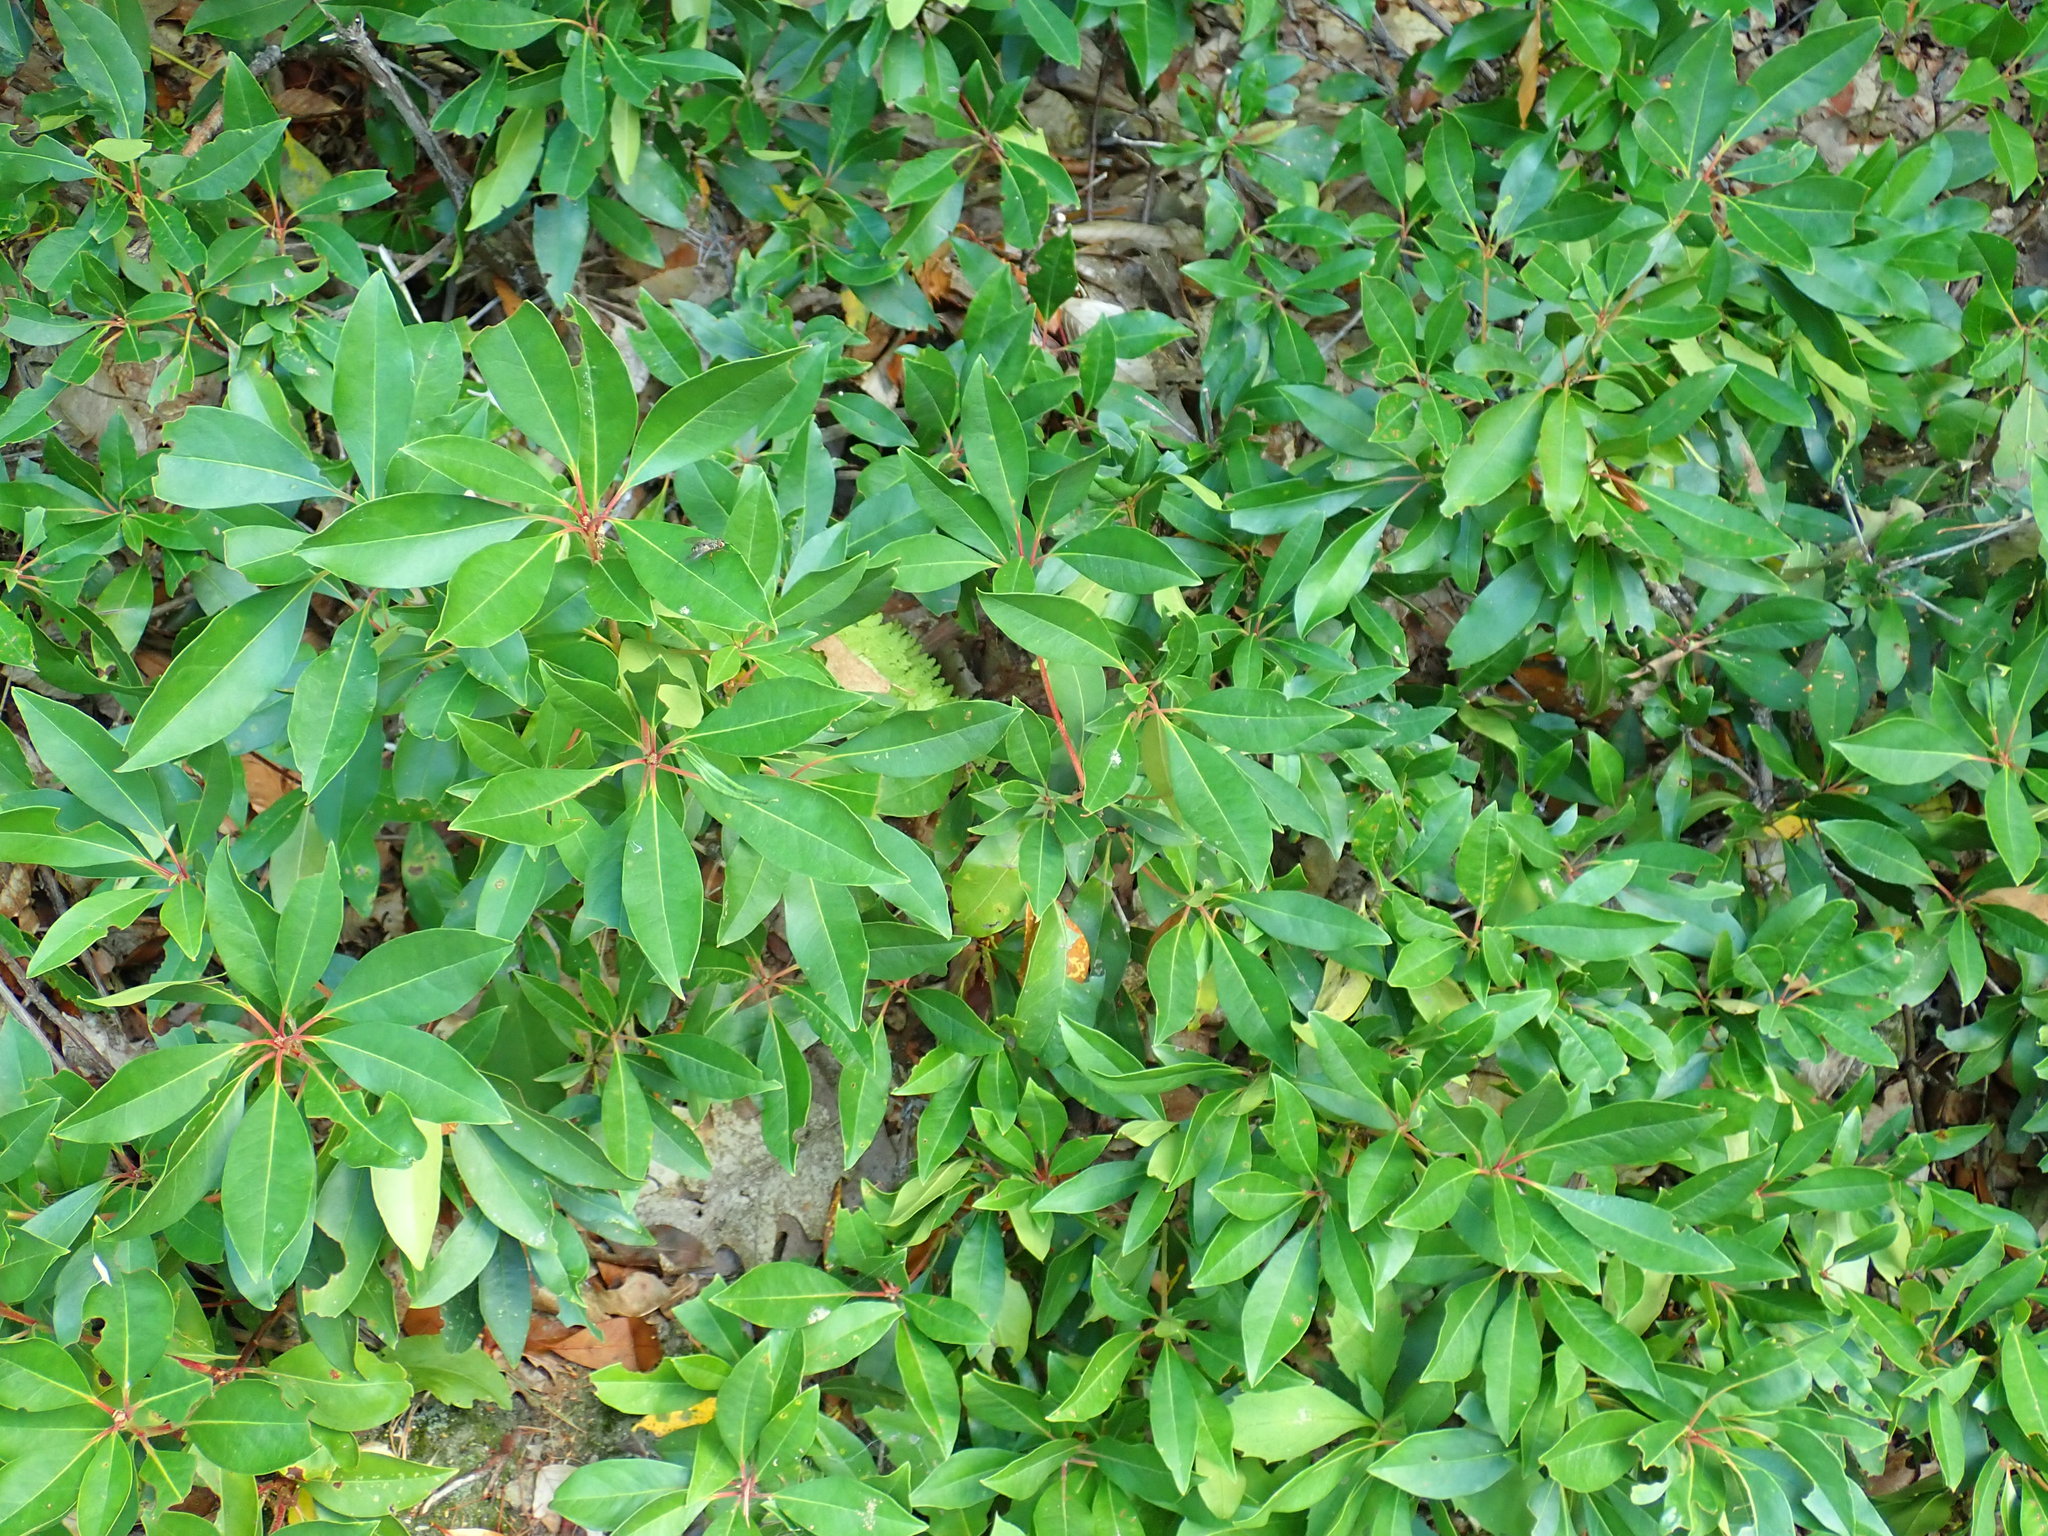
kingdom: Plantae
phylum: Tracheophyta
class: Magnoliopsida
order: Ericales
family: Ericaceae
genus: Kalmia
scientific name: Kalmia latifolia
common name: Mountain-laurel
